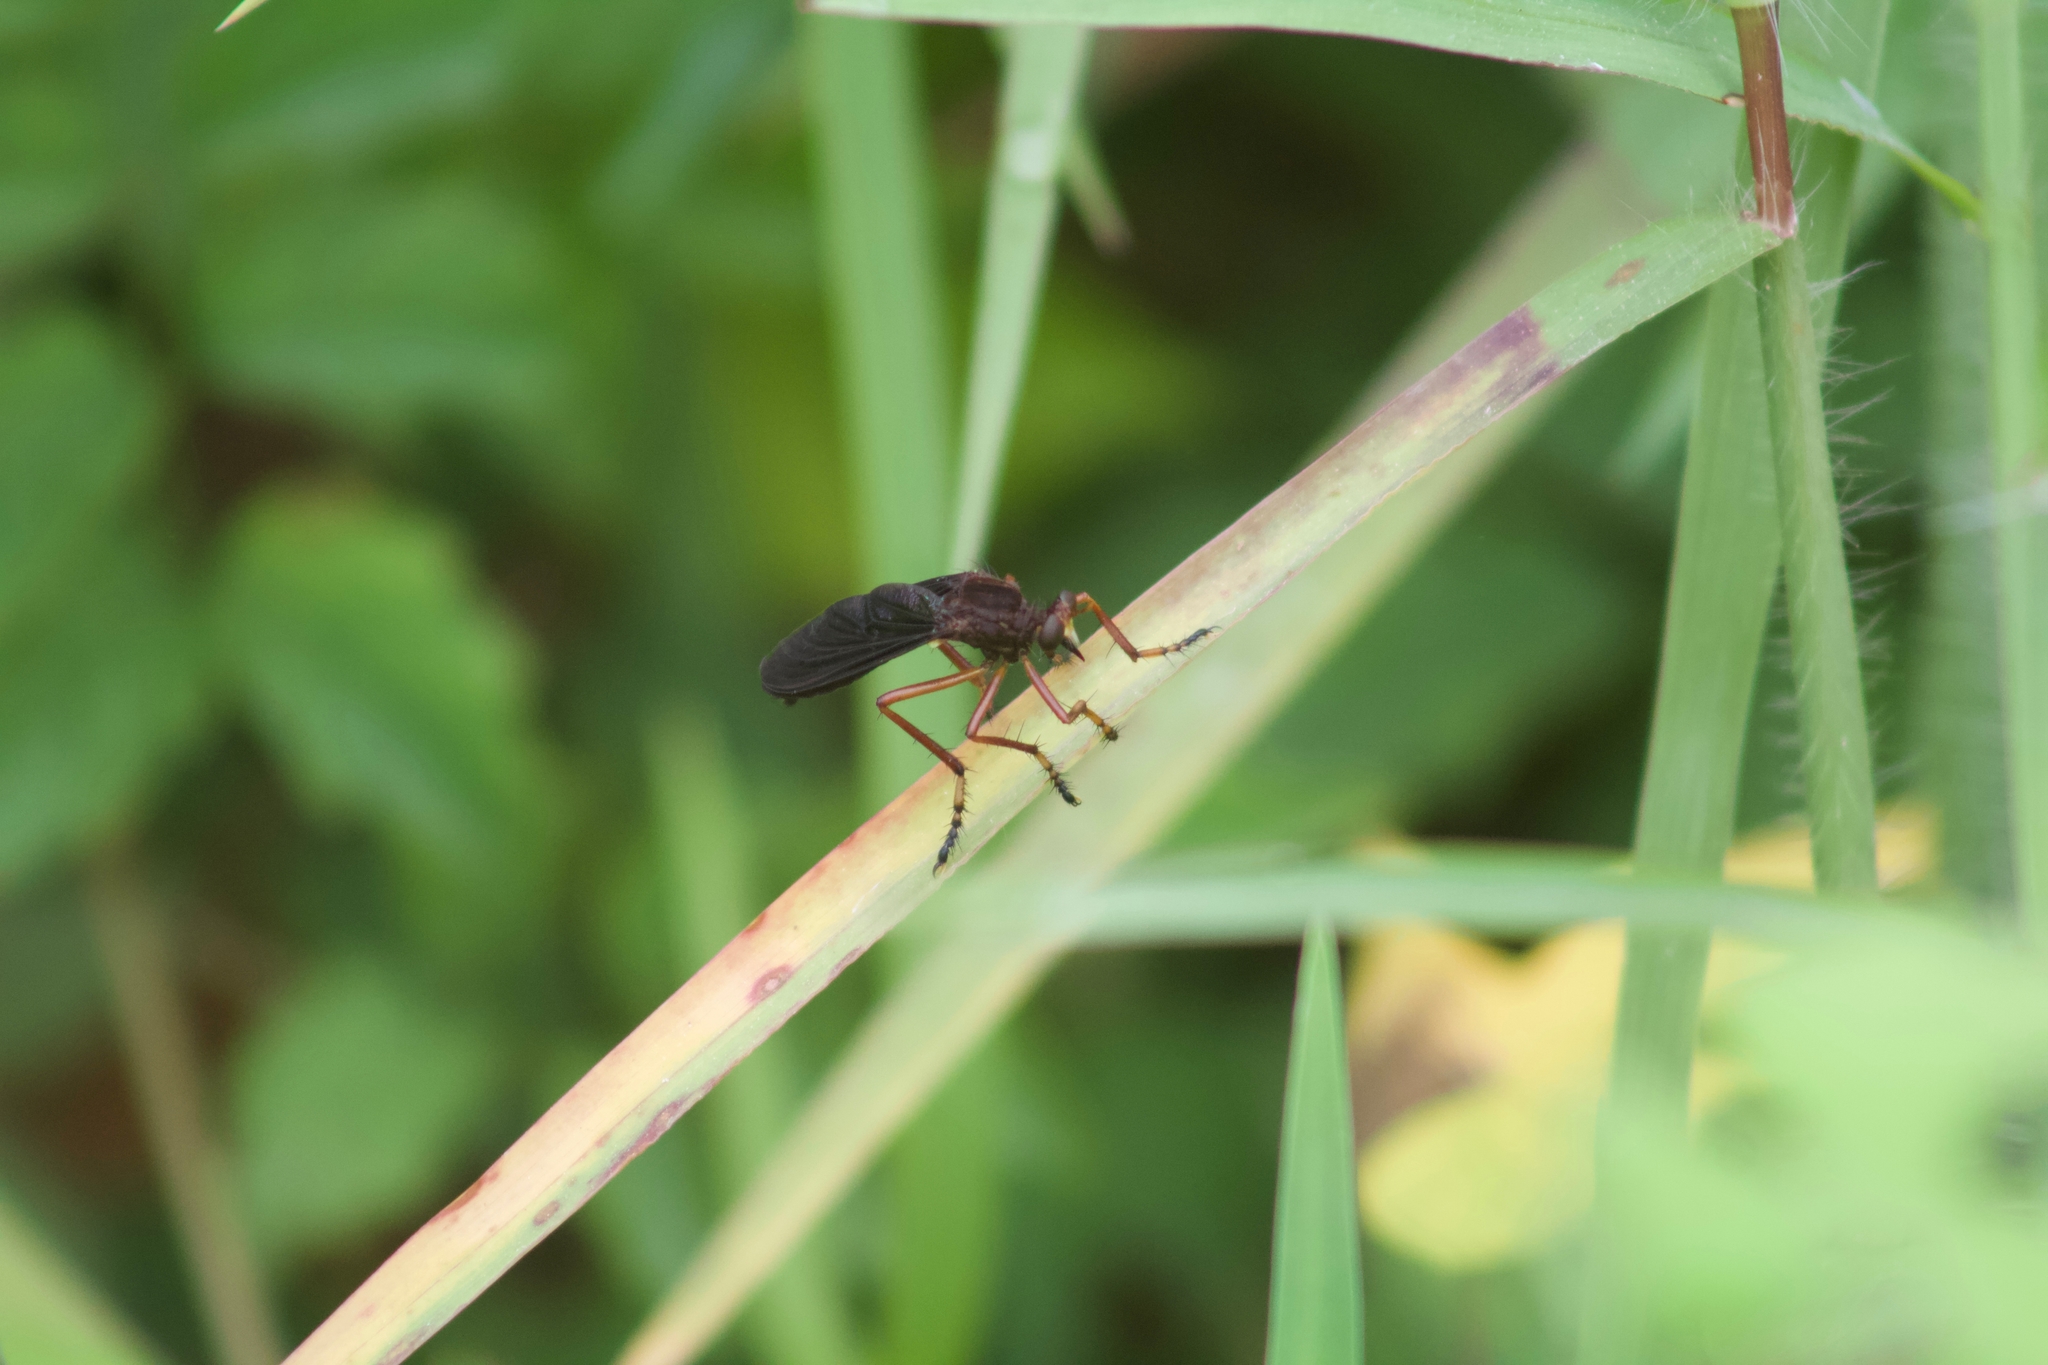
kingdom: Animalia
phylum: Arthropoda
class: Insecta
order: Diptera
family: Asilidae
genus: Diogmites
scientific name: Diogmites platypterus
